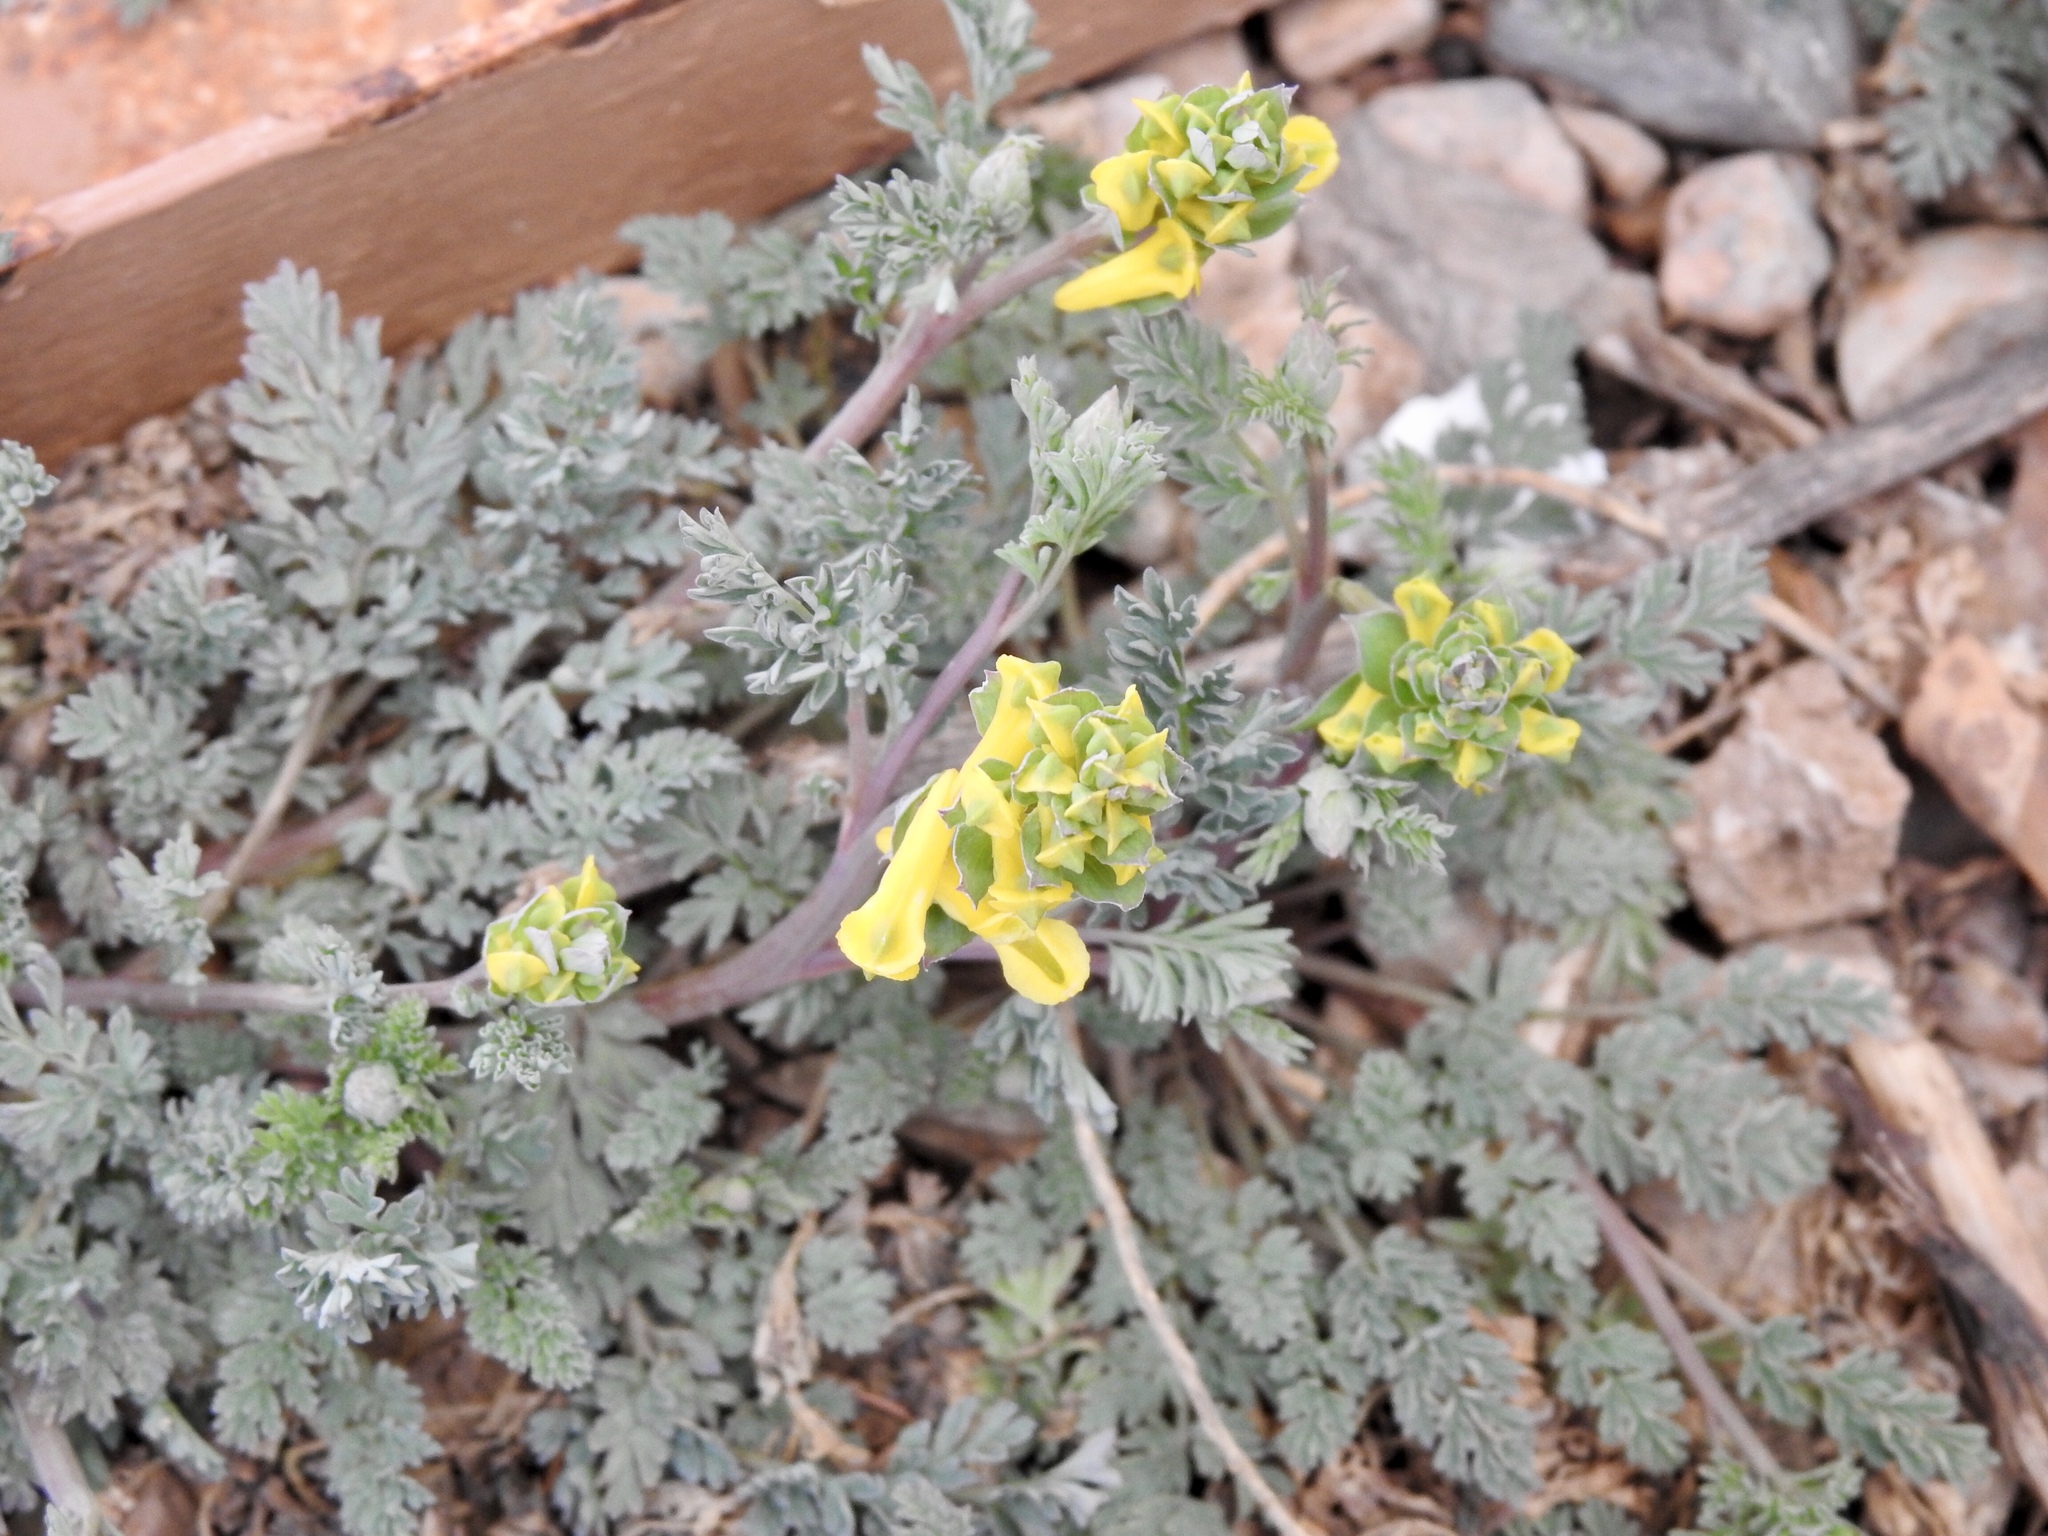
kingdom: Plantae
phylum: Tracheophyta
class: Magnoliopsida
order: Ranunculales
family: Papaveraceae
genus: Corydalis
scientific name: Corydalis aurea
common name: Golden corydalis
